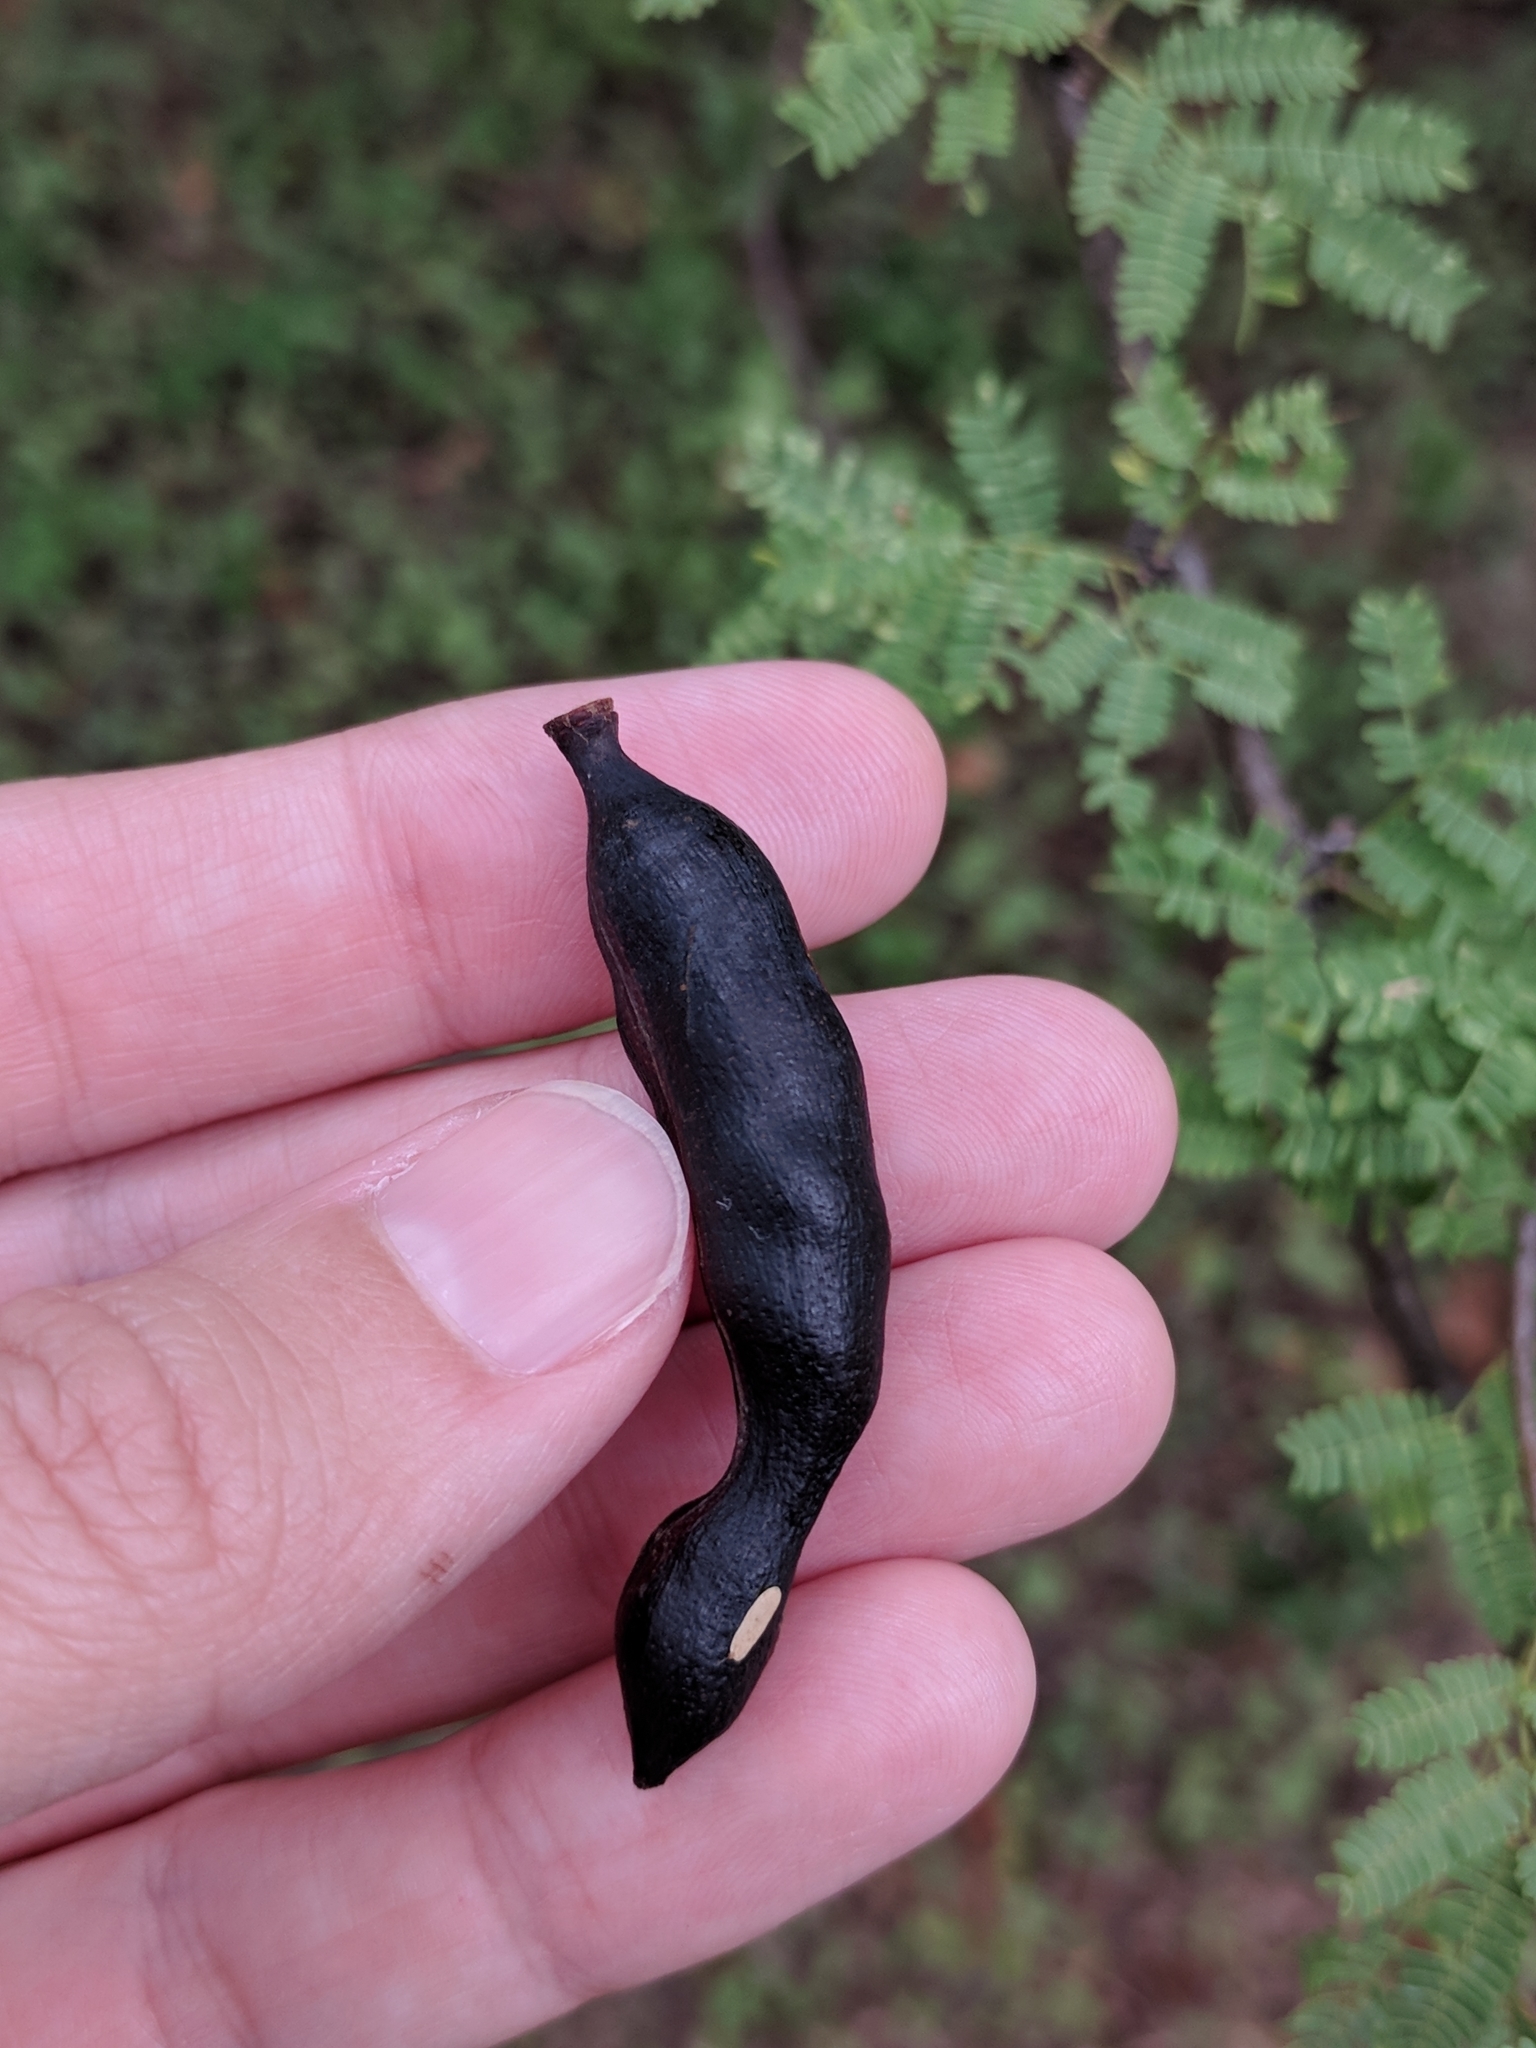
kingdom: Plantae
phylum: Tracheophyta
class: Magnoliopsida
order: Fabales
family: Fabaceae
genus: Vachellia
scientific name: Vachellia farnesiana
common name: Sweet acacia
